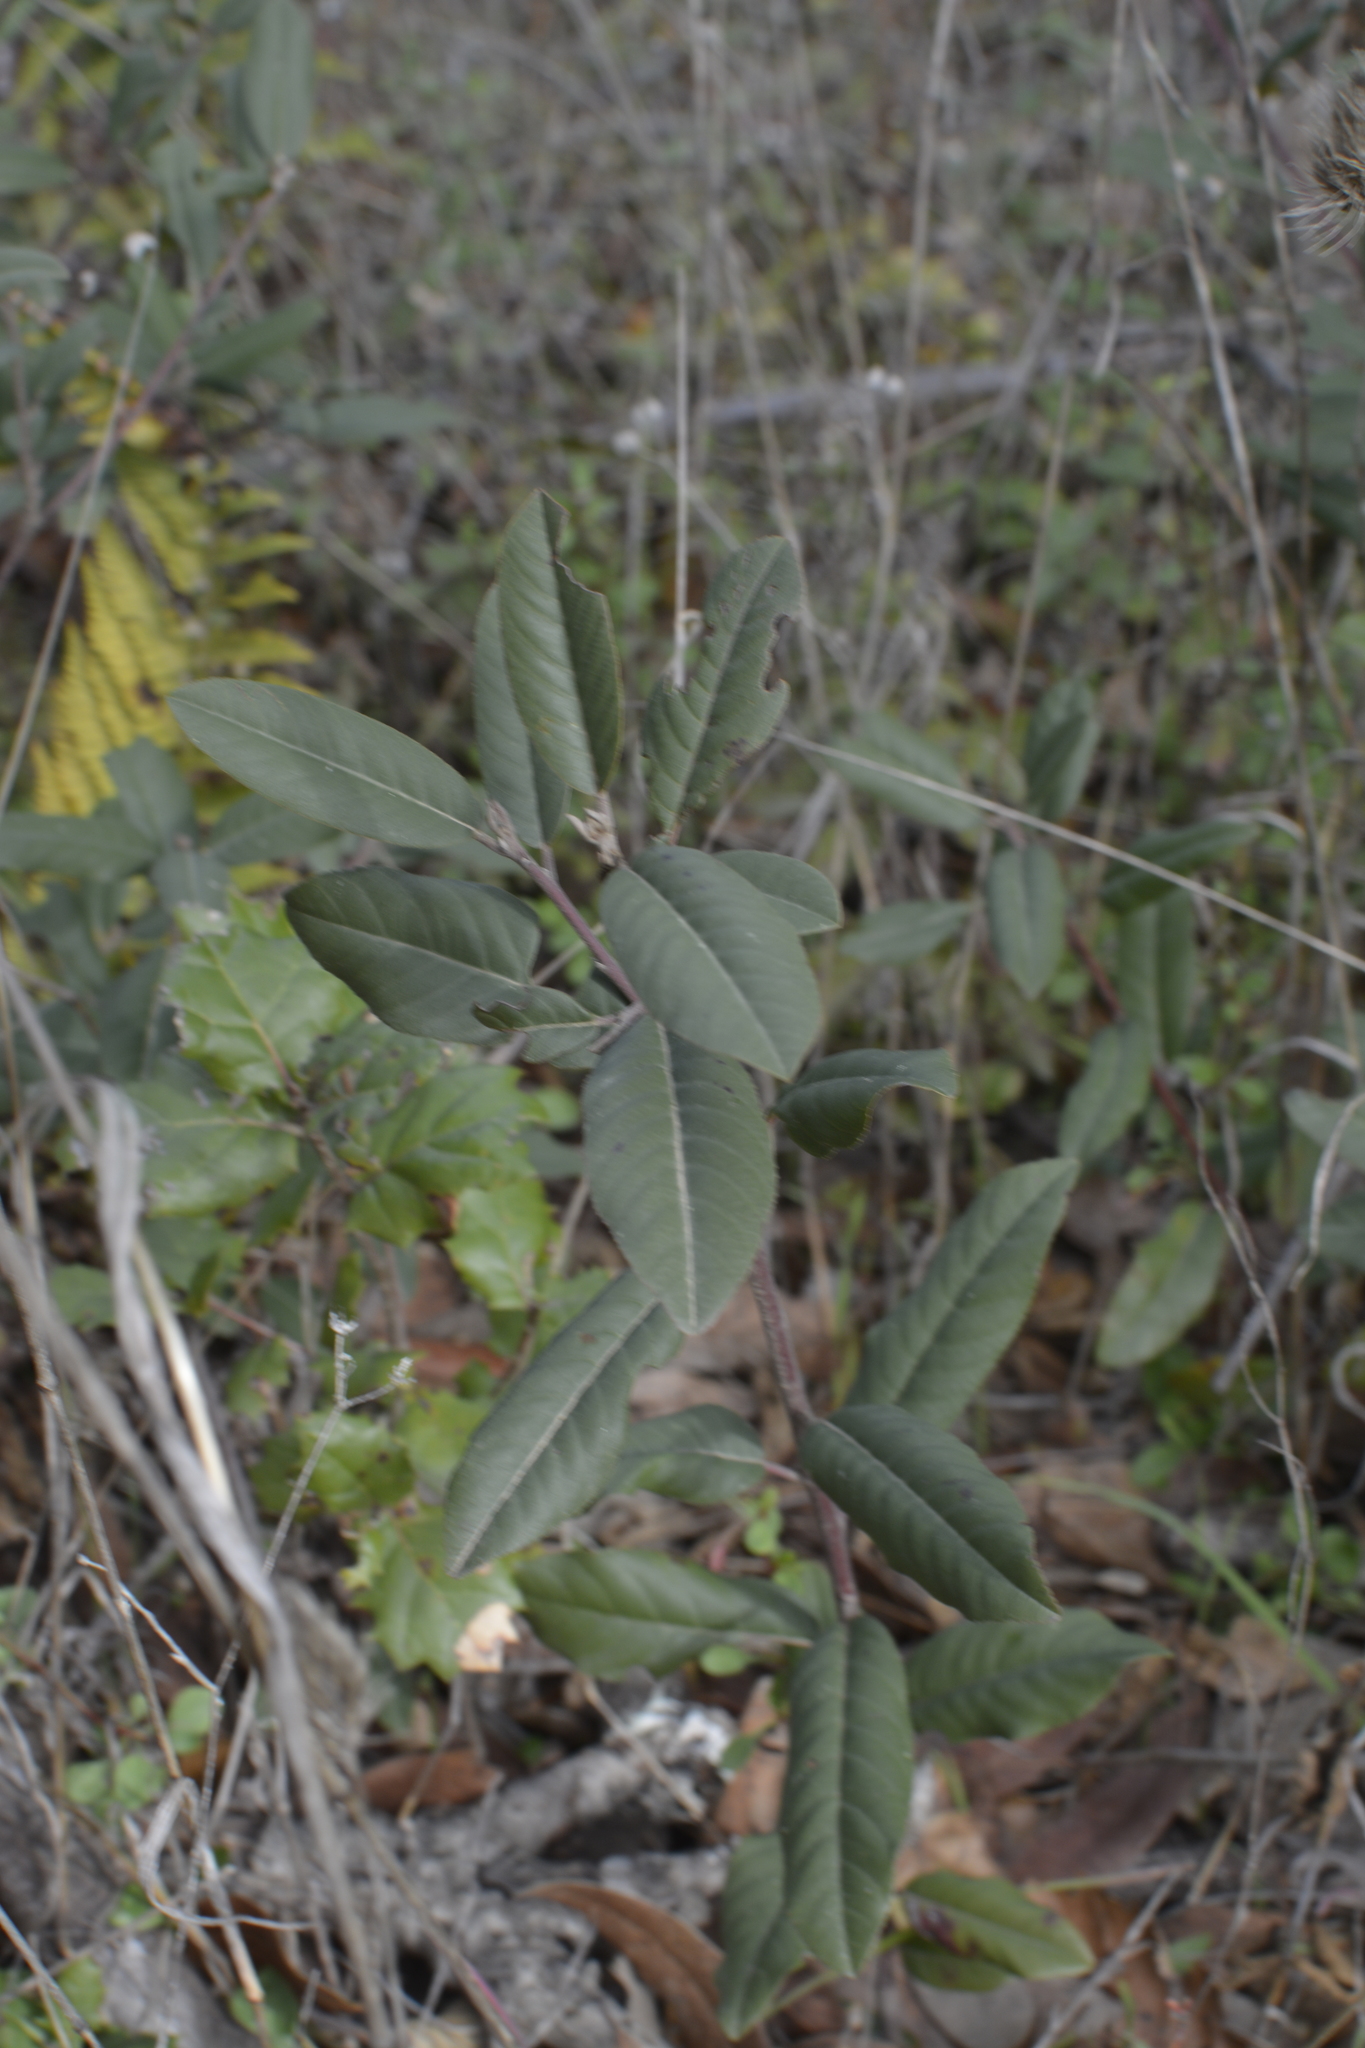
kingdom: Plantae
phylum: Tracheophyta
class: Magnoliopsida
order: Rosales
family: Rhamnaceae
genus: Frangula
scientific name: Frangula californica
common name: California buckthorn
